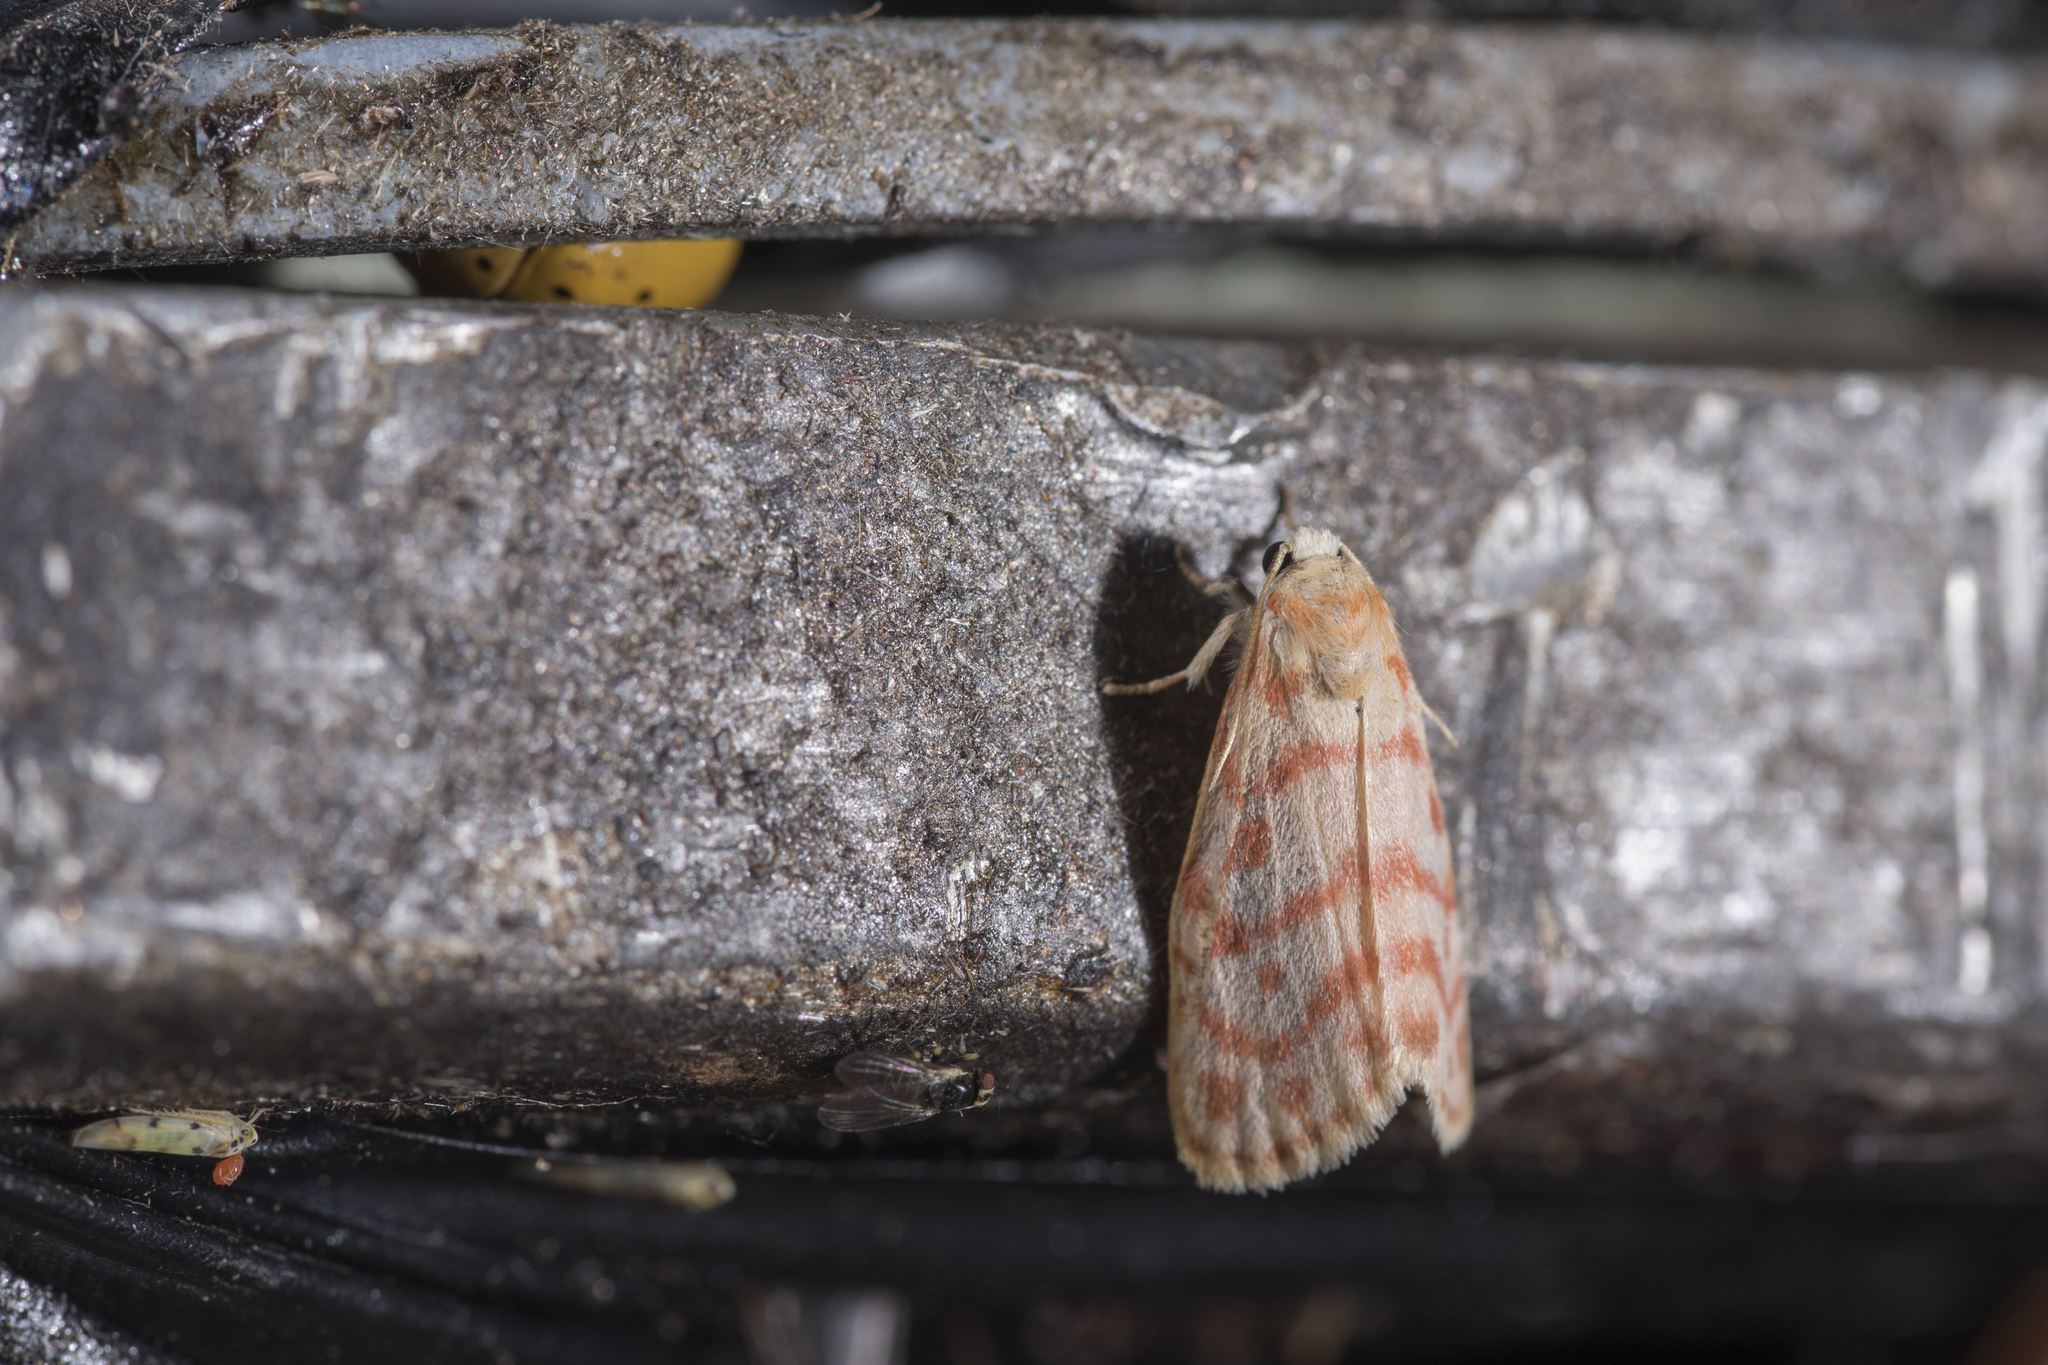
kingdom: Animalia
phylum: Arthropoda
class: Insecta
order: Lepidoptera
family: Erebidae
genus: Nephelomilta
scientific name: Nephelomilta effracta
